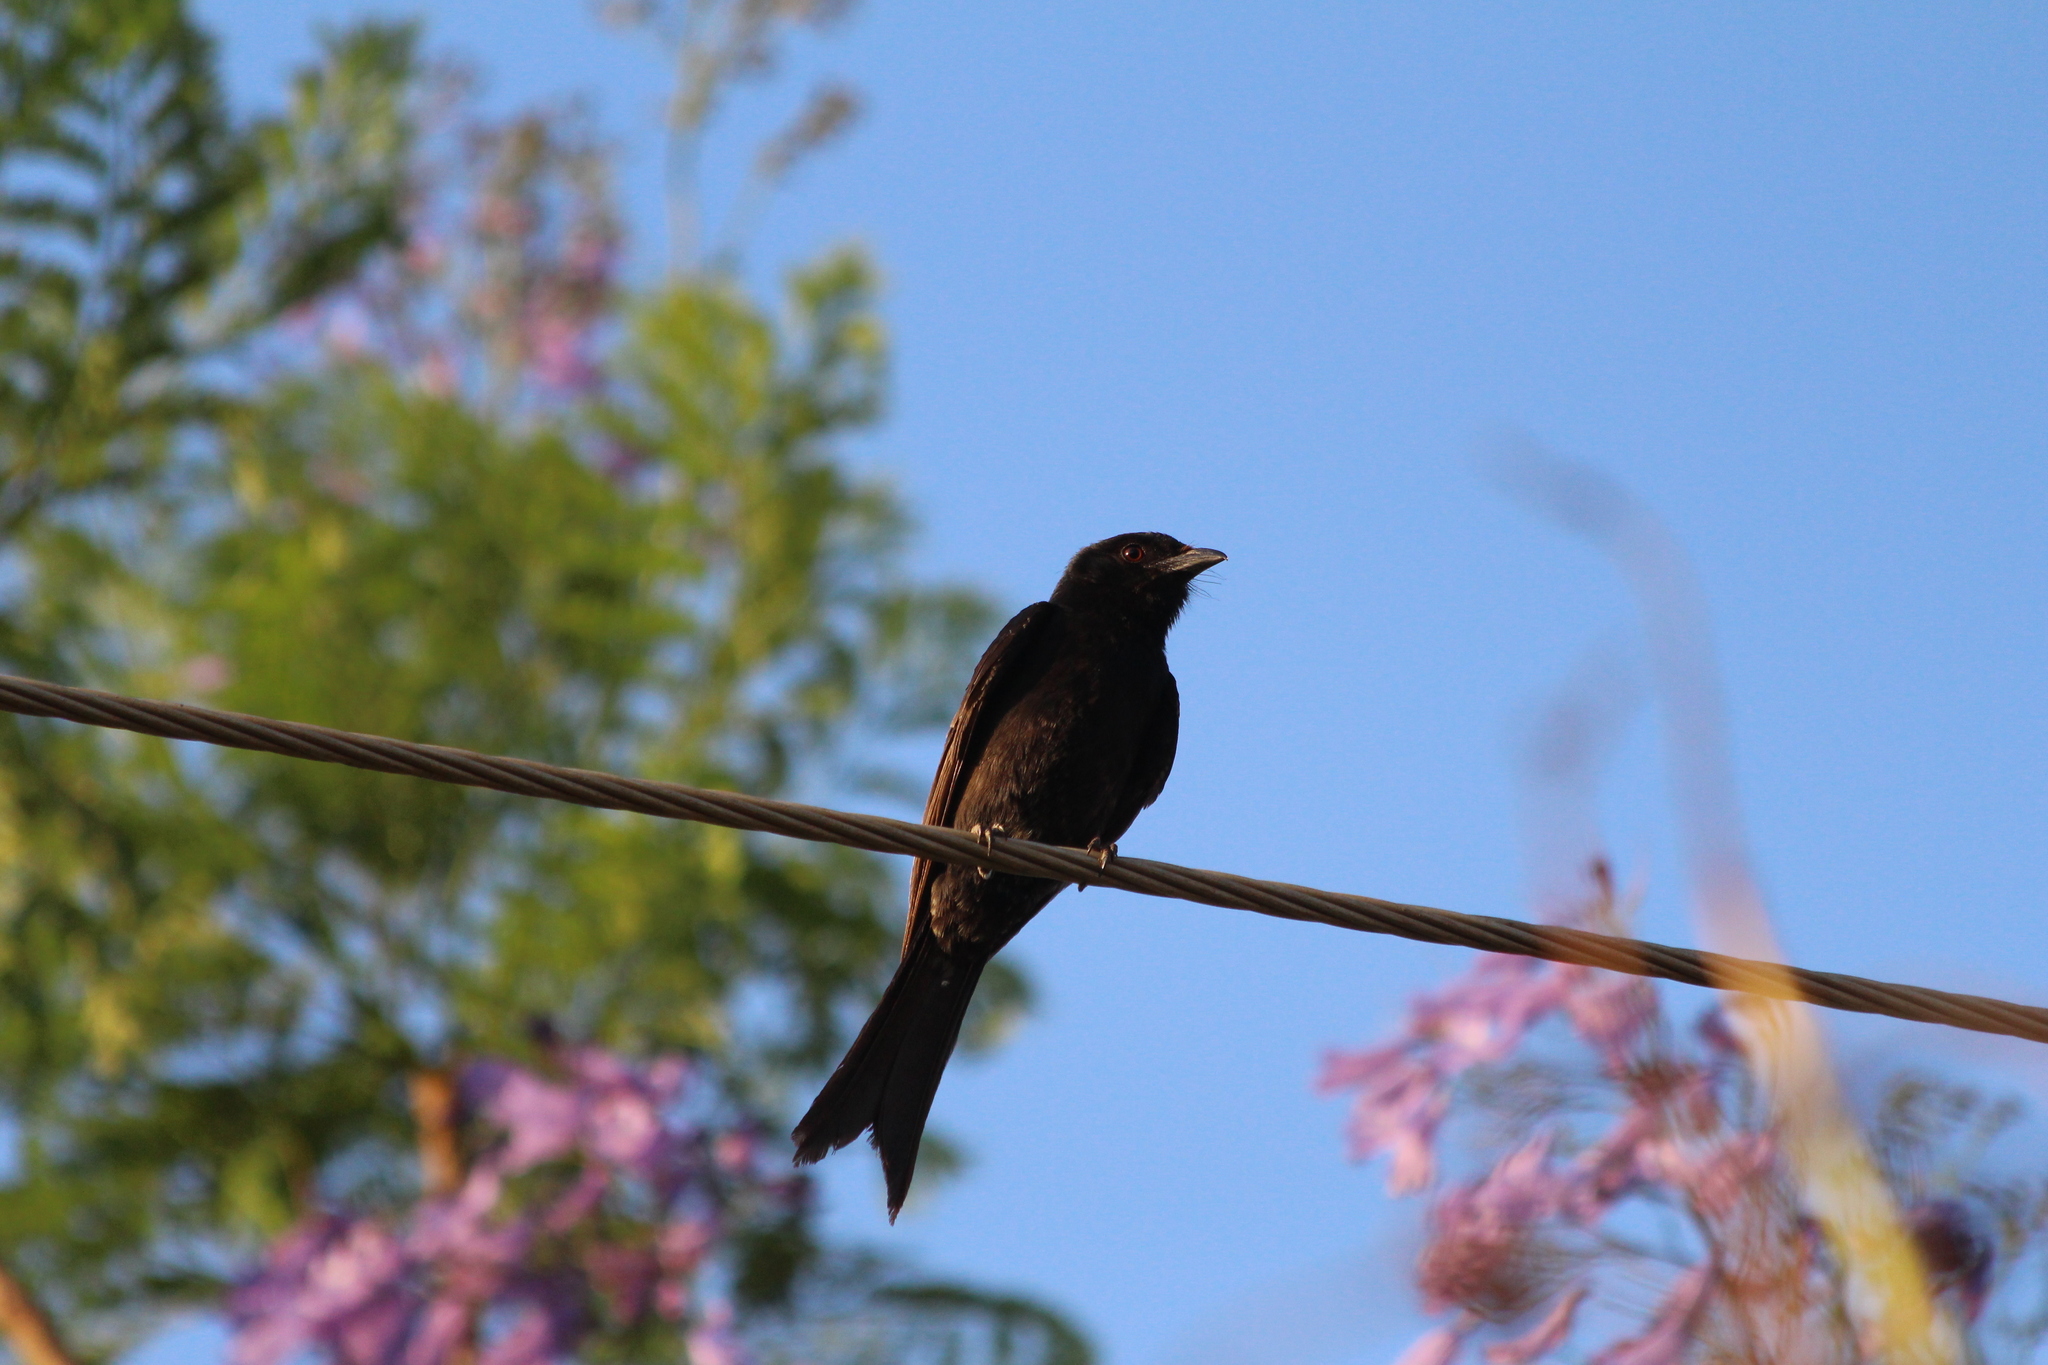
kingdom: Animalia
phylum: Chordata
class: Aves
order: Passeriformes
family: Dicruridae
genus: Dicrurus
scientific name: Dicrurus adsimilis
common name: Fork-tailed drongo
